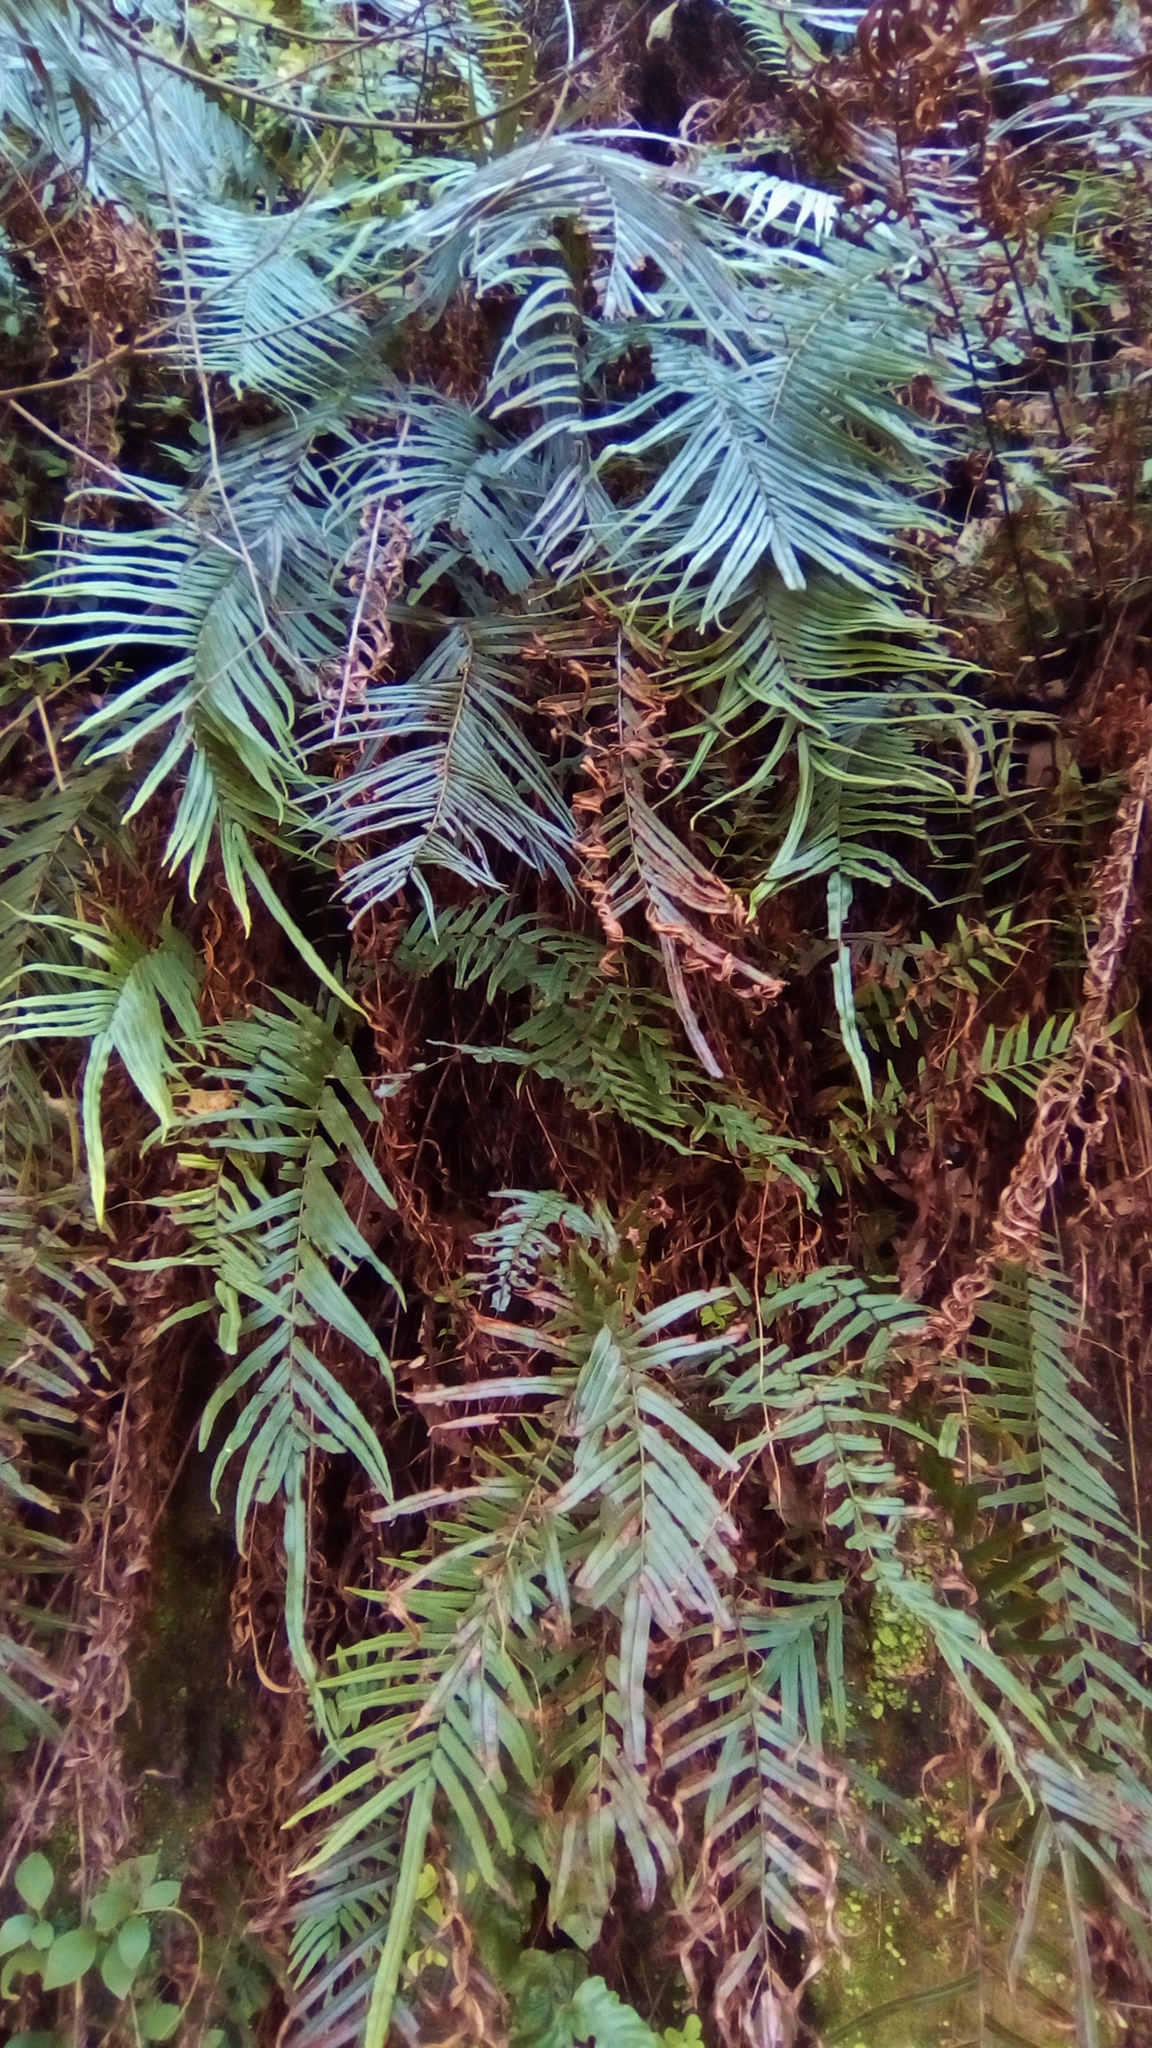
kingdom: Plantae
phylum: Tracheophyta
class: Polypodiopsida
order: Polypodiales
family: Pteridaceae
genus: Pteris
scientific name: Pteris vittata
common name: Ladder brake
